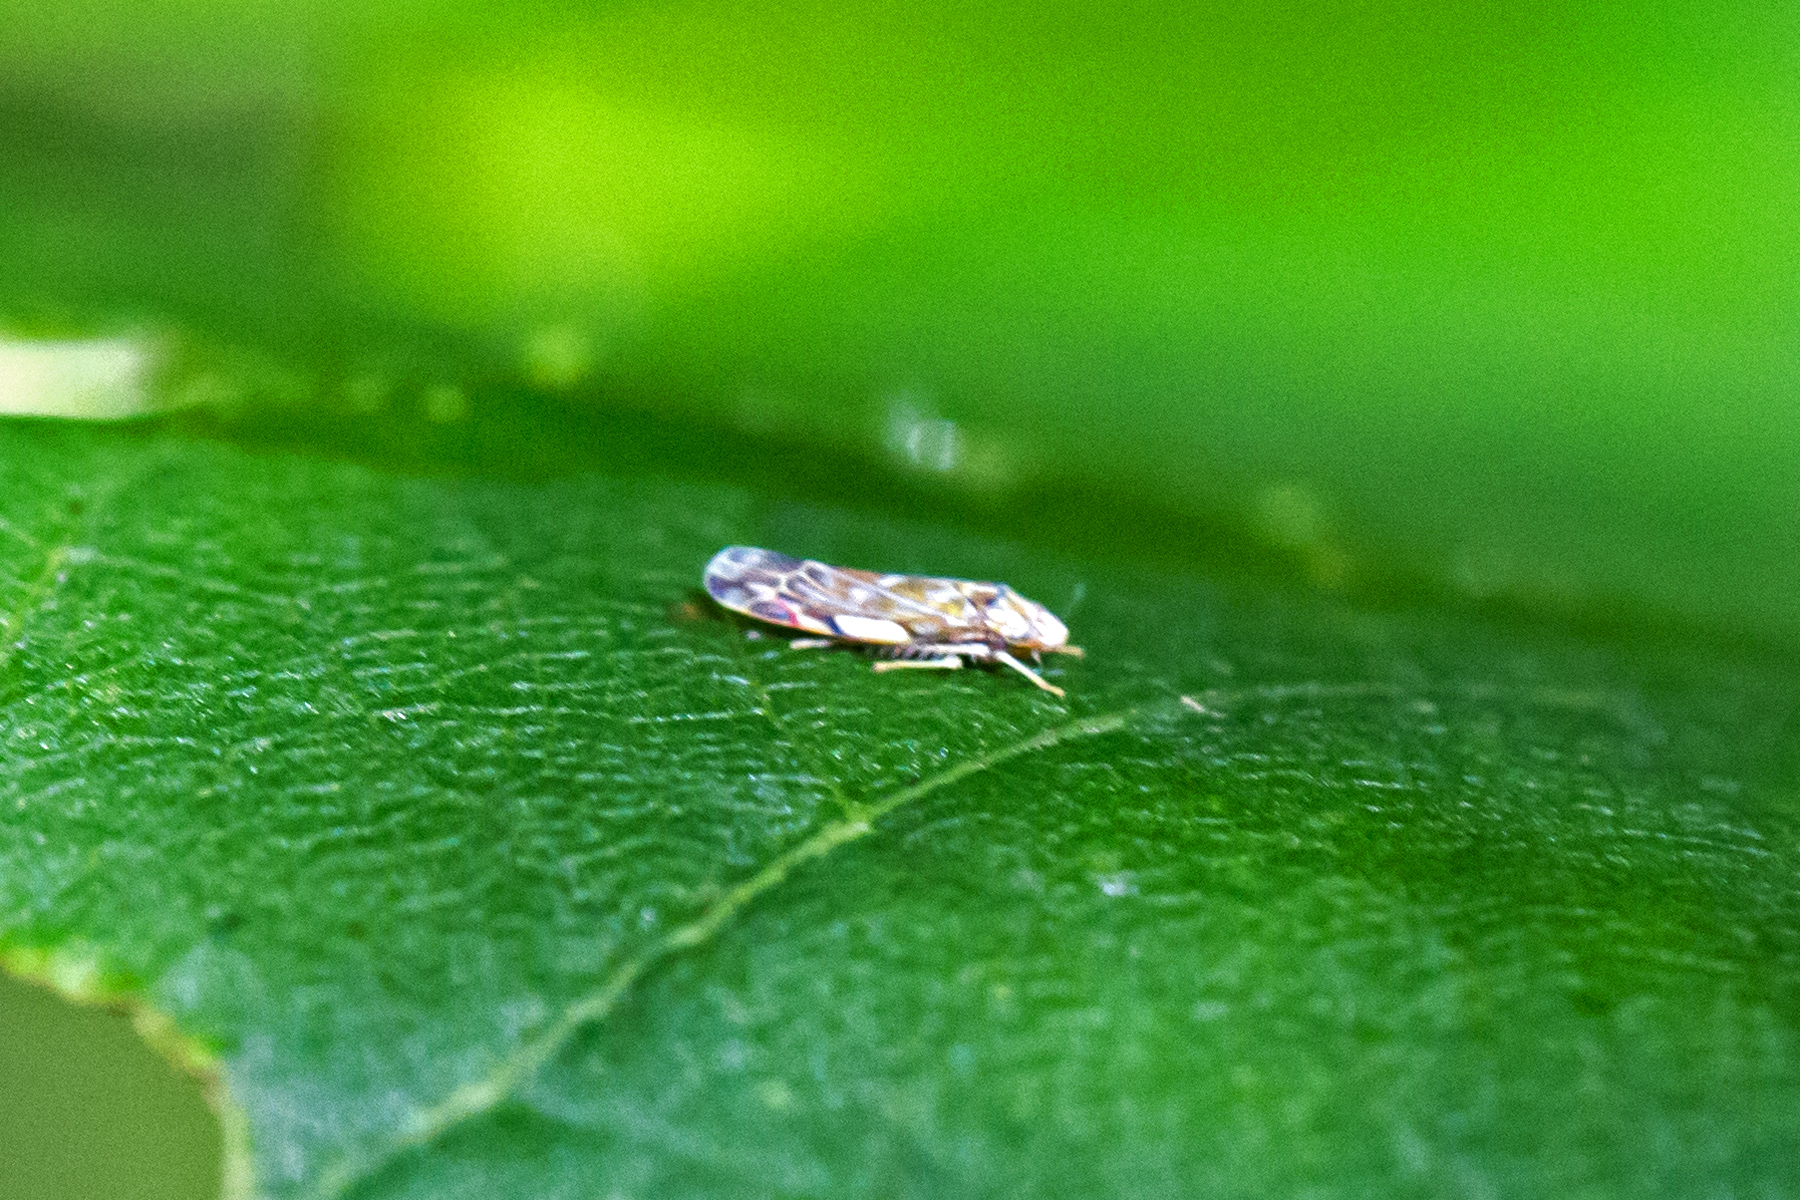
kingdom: Animalia
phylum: Arthropoda
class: Insecta
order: Hemiptera
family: Cicadellidae
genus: Erasmoneura
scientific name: Erasmoneura vulnerata
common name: The wounded leafhopper
